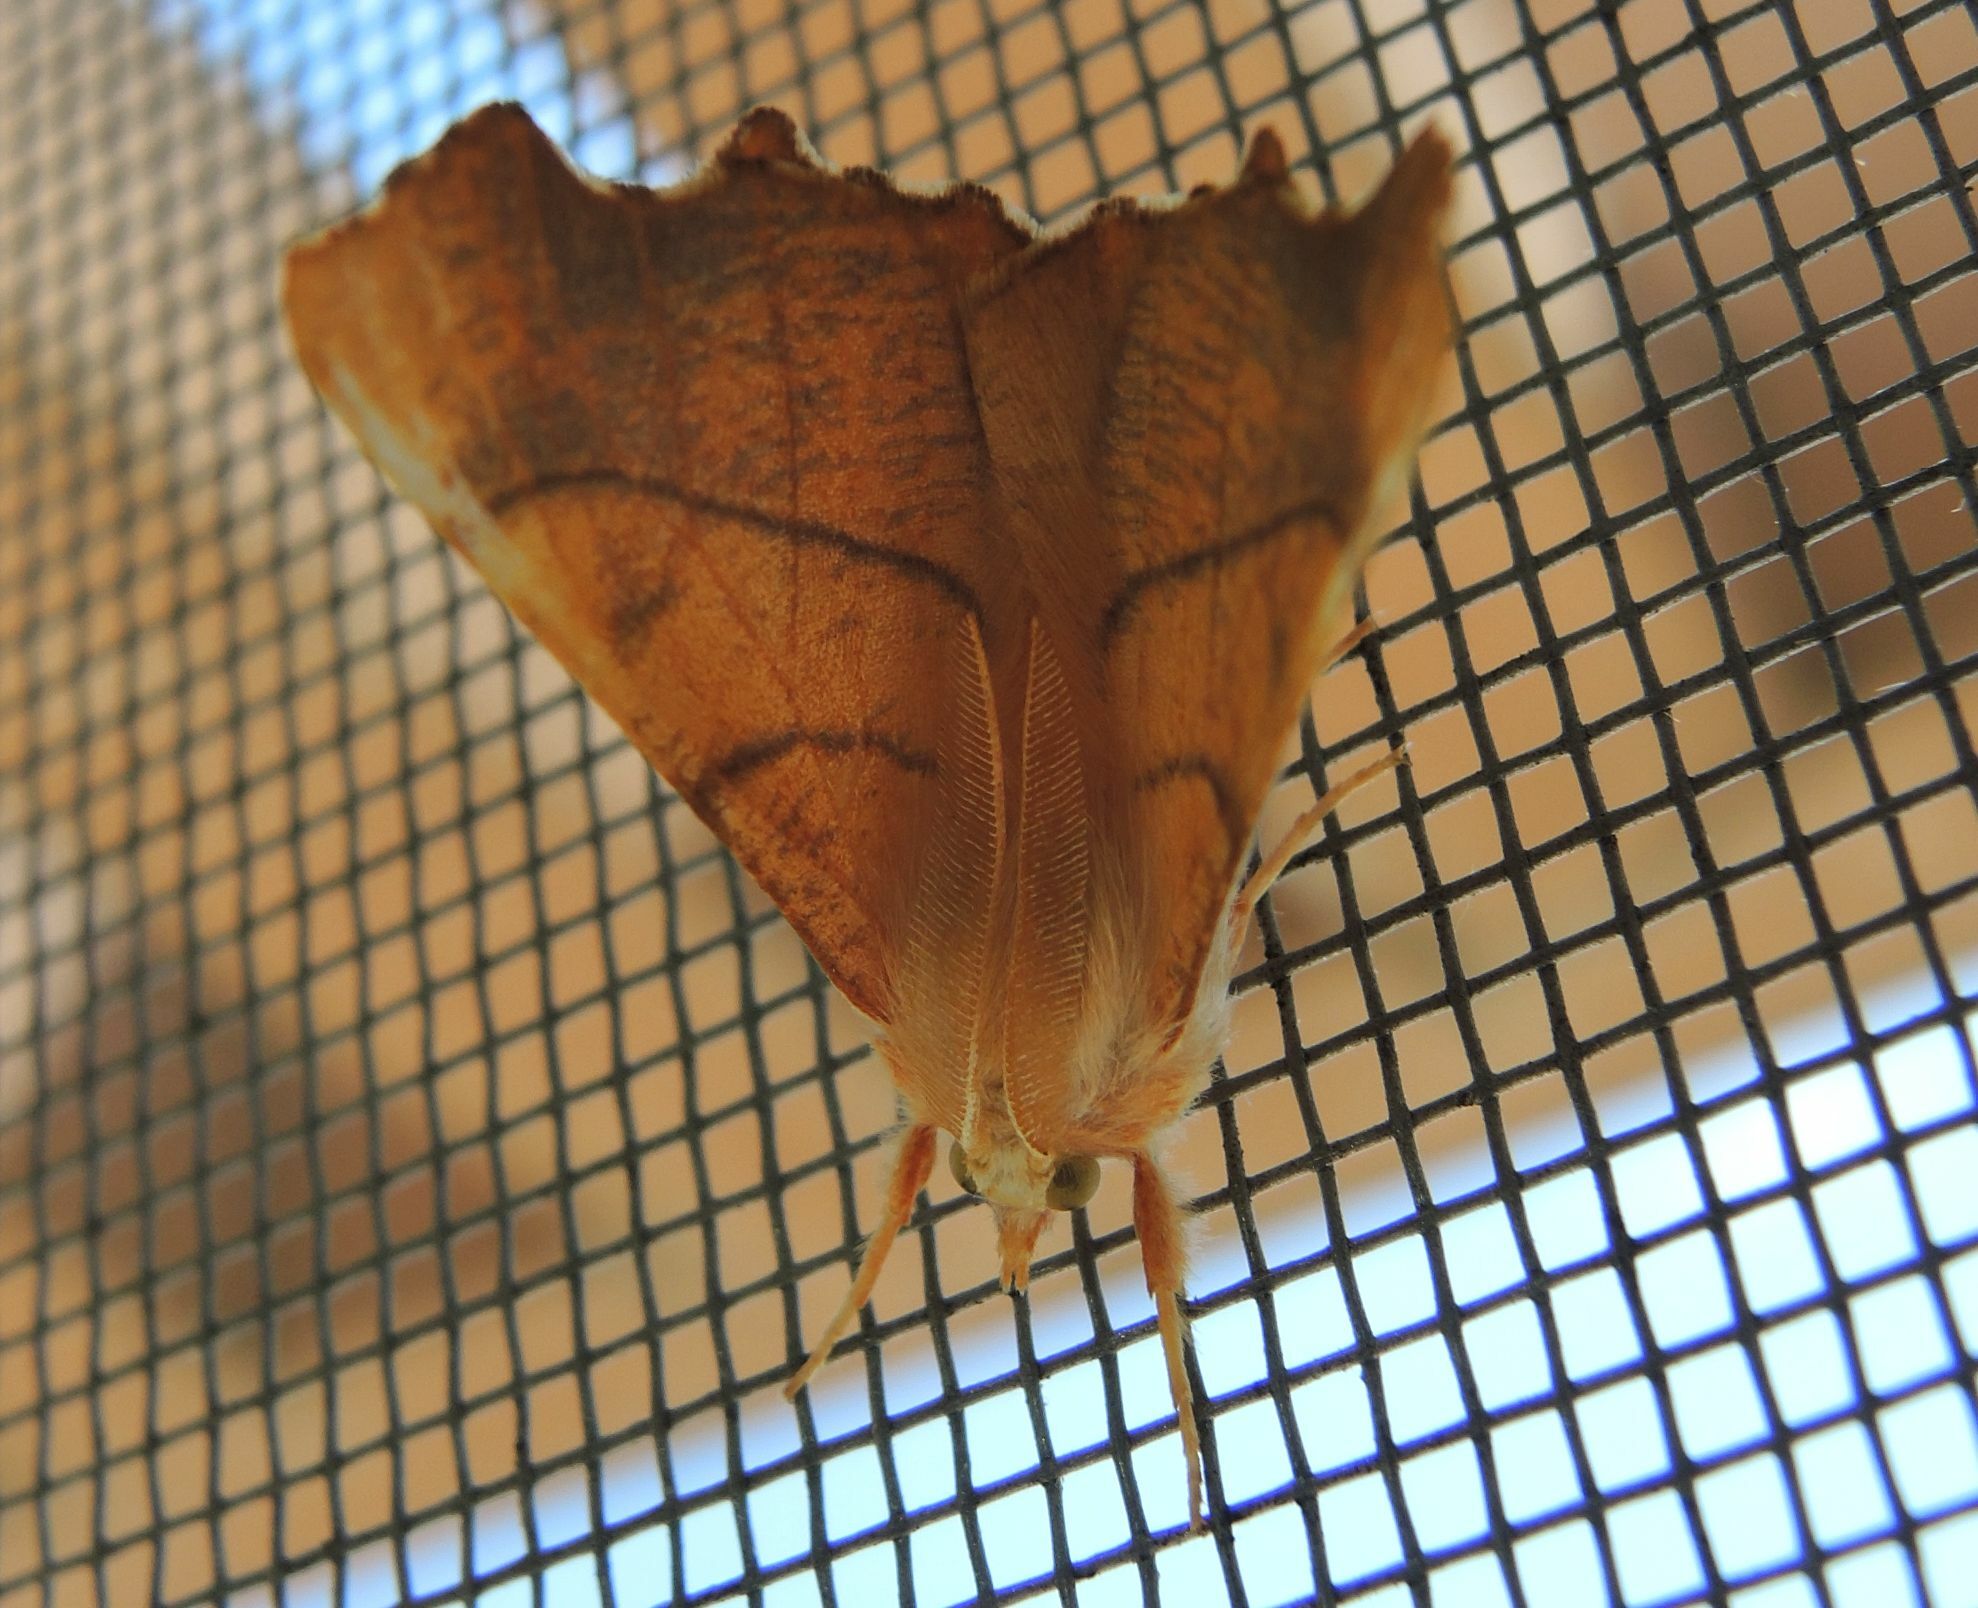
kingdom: Animalia
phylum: Arthropoda
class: Insecta
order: Lepidoptera
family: Geometridae
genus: Ennomos
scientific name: Ennomos fuscantaria
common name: Dusky thorn
